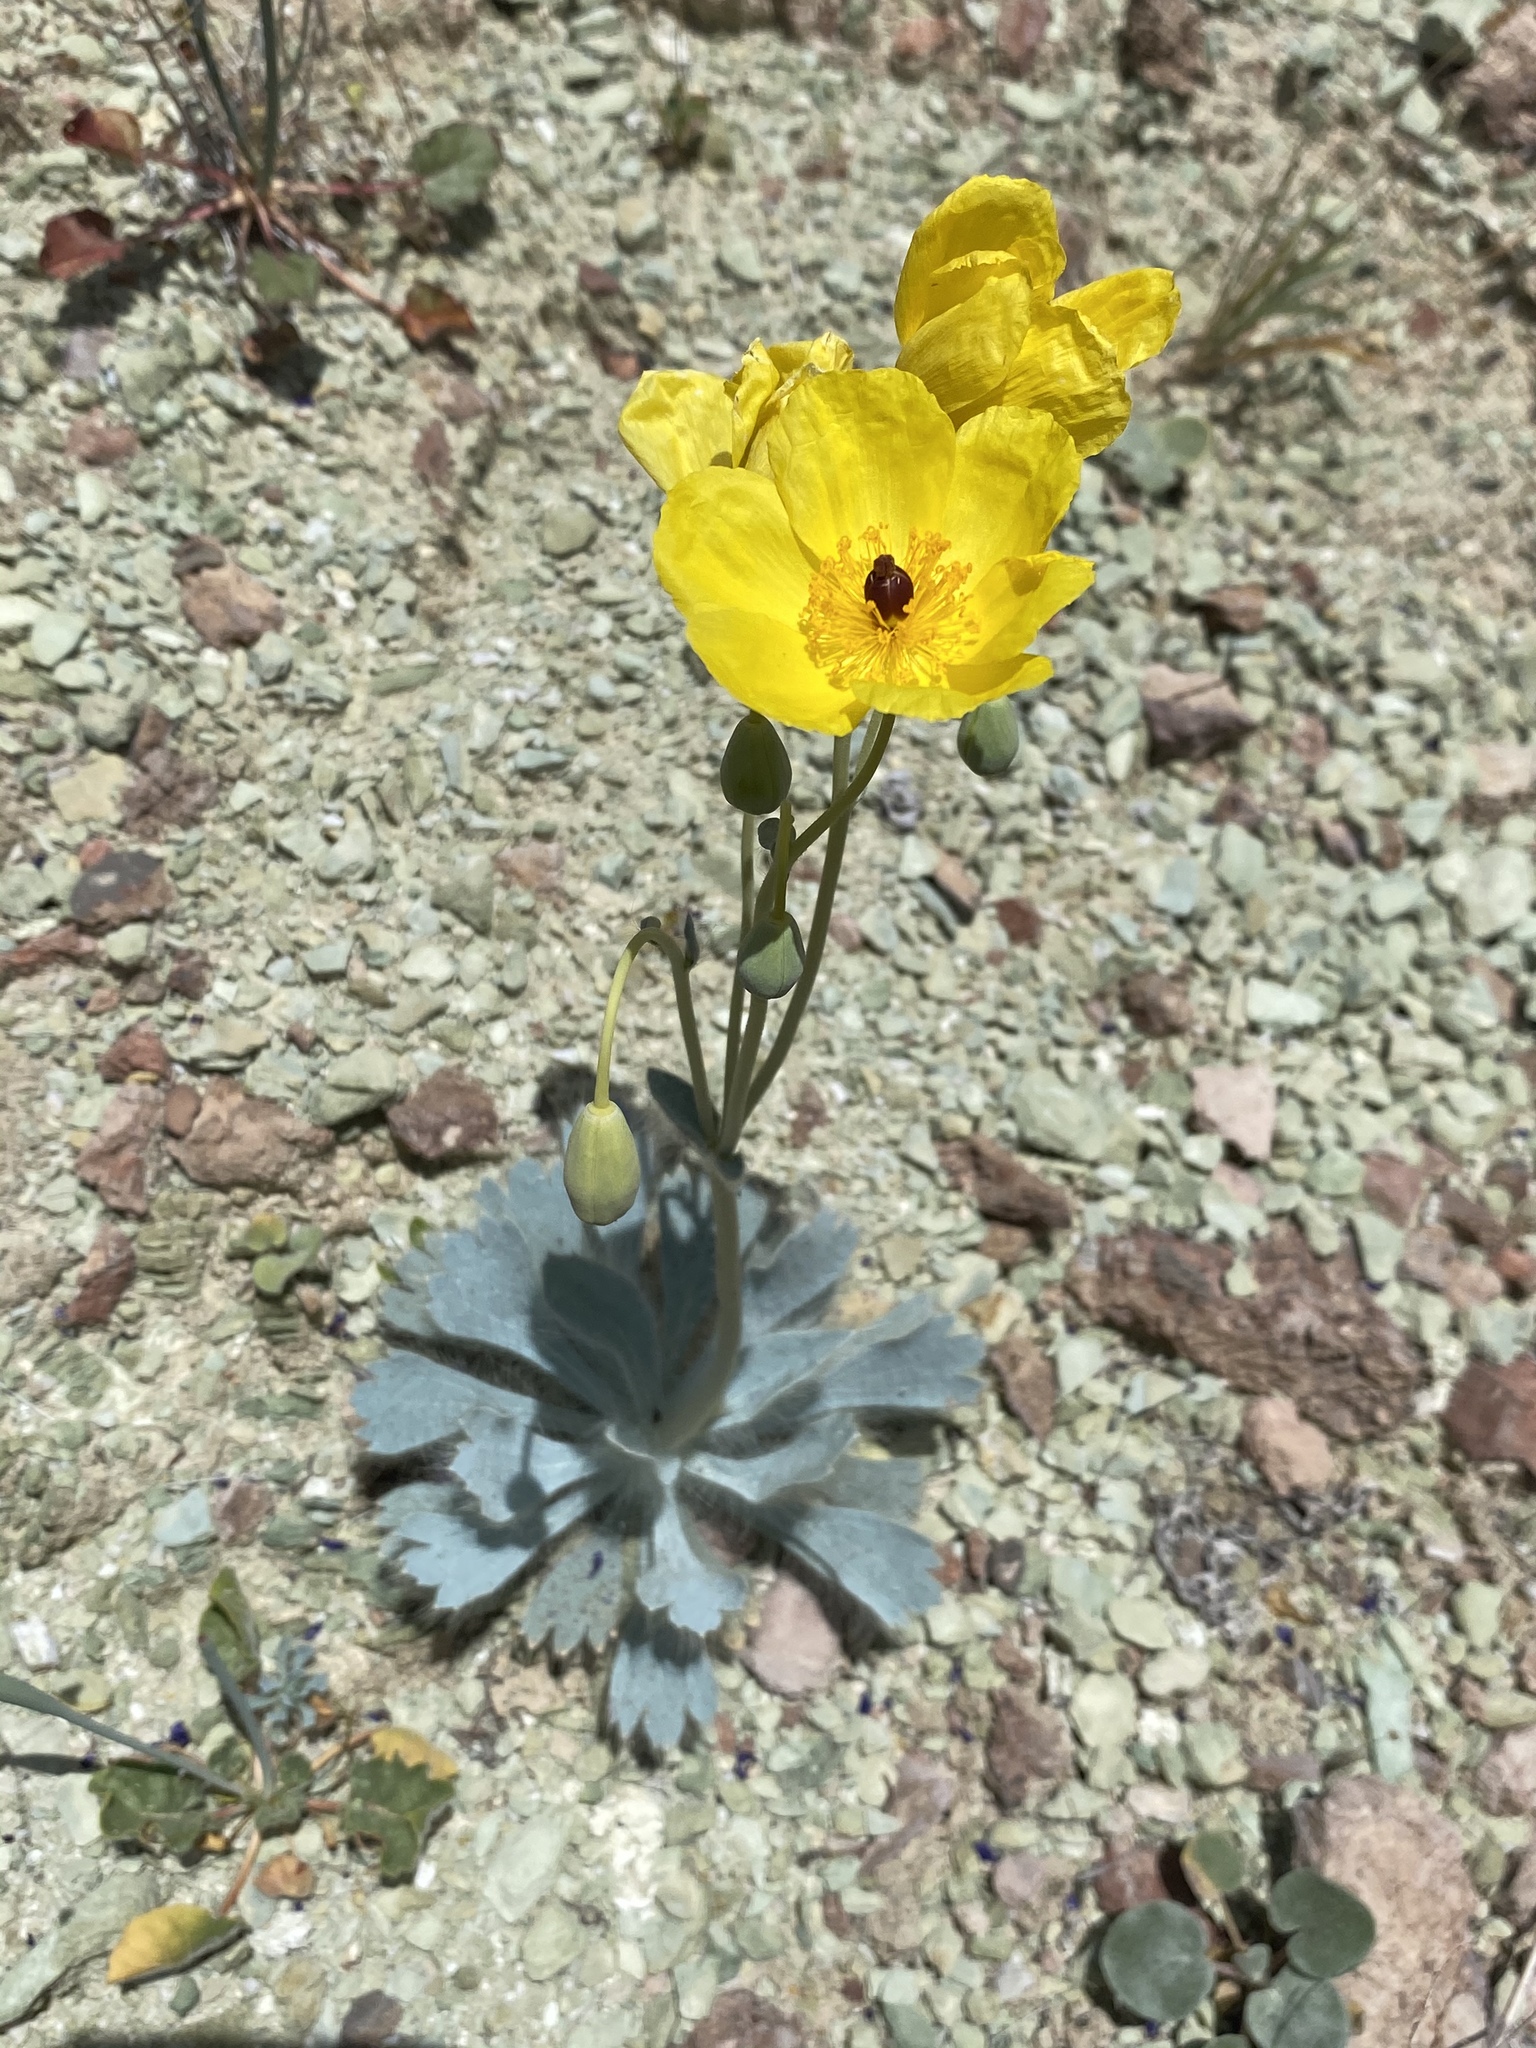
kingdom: Plantae
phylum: Tracheophyta
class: Magnoliopsida
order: Ranunculales
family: Papaveraceae
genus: Arctomecon
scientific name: Arctomecon californicum
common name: Golden bearclaw-poppy
